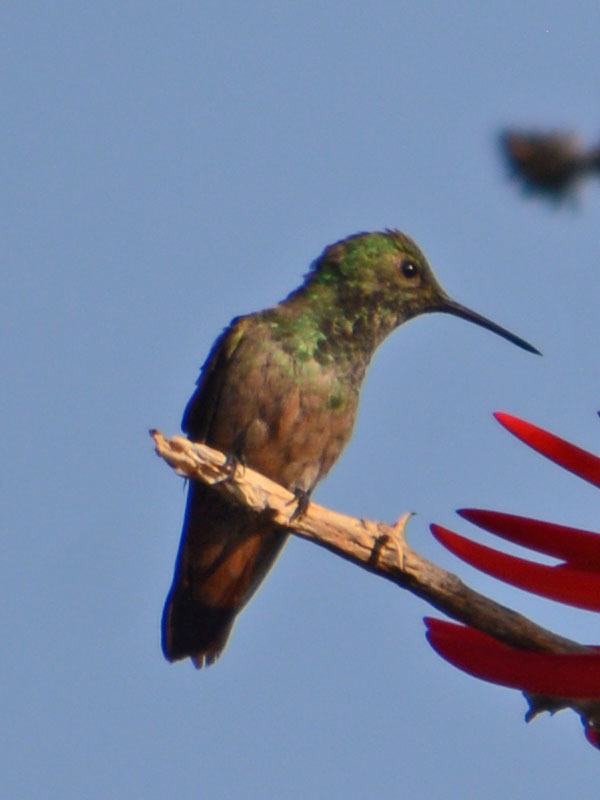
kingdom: Animalia
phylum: Chordata
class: Aves
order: Apodiformes
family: Trochilidae
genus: Saucerottia
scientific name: Saucerottia beryllina
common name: Berylline hummingbird
